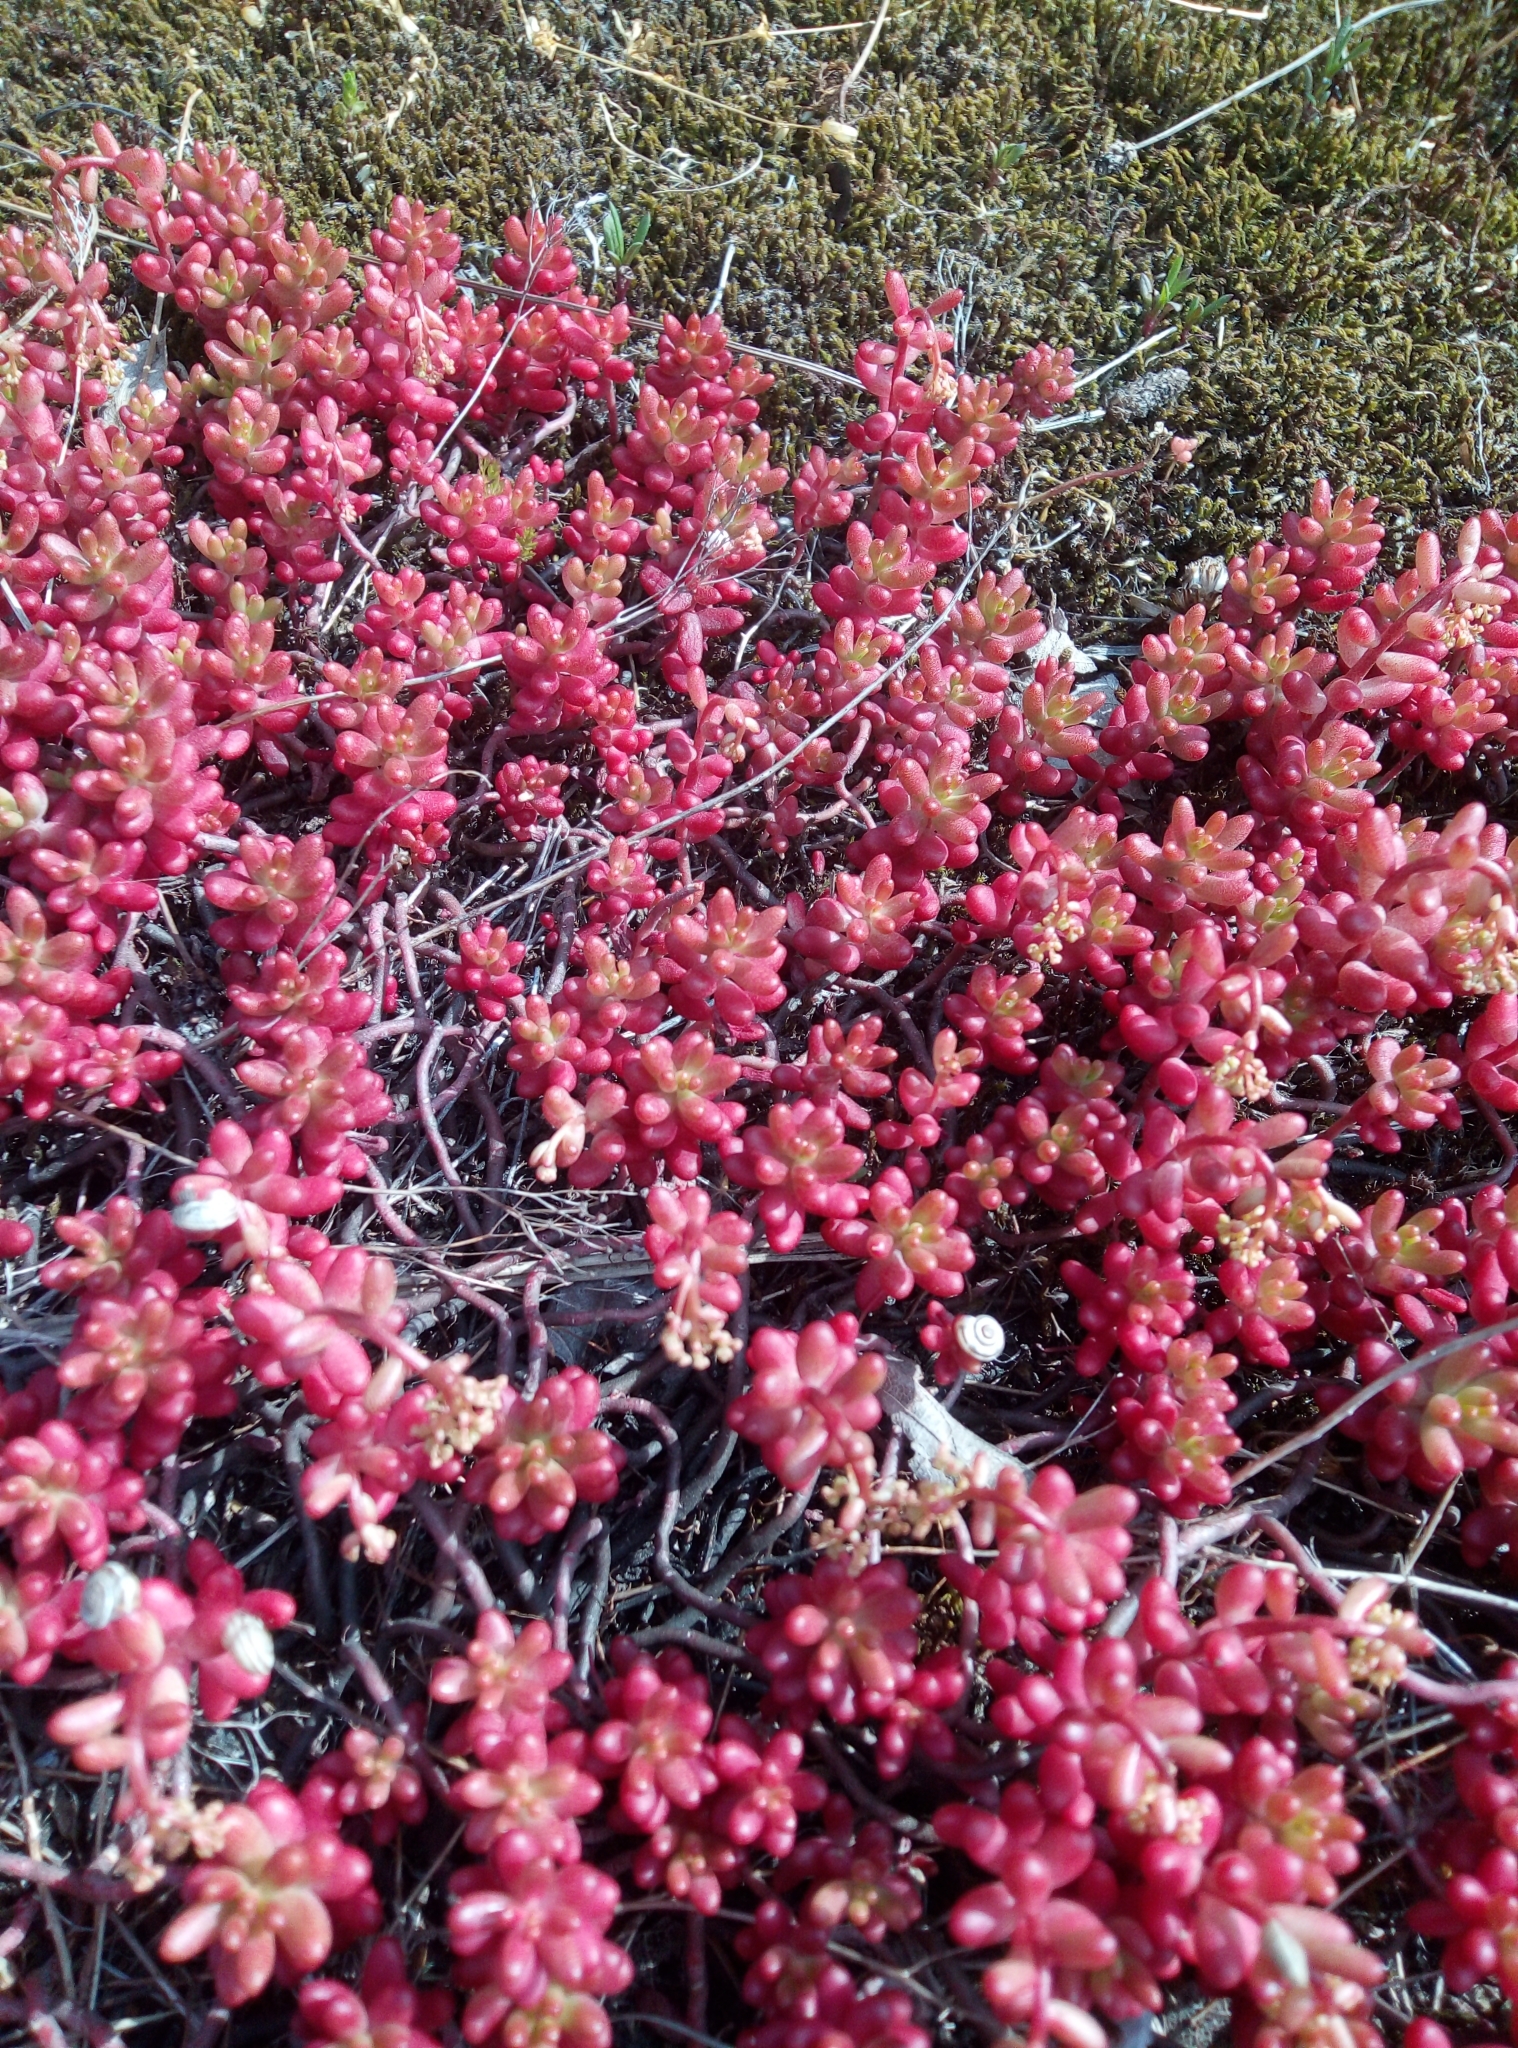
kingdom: Plantae
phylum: Tracheophyta
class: Magnoliopsida
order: Saxifragales
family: Crassulaceae
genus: Sedum
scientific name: Sedum album
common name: White stonecrop
